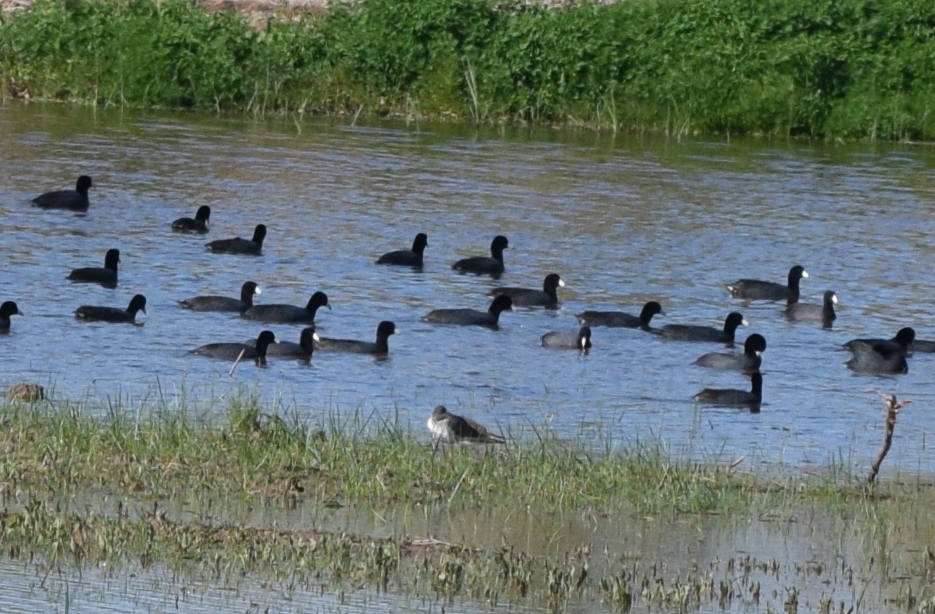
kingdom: Animalia
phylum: Chordata
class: Aves
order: Gruiformes
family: Rallidae
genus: Fulica
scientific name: Fulica americana
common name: American coot
